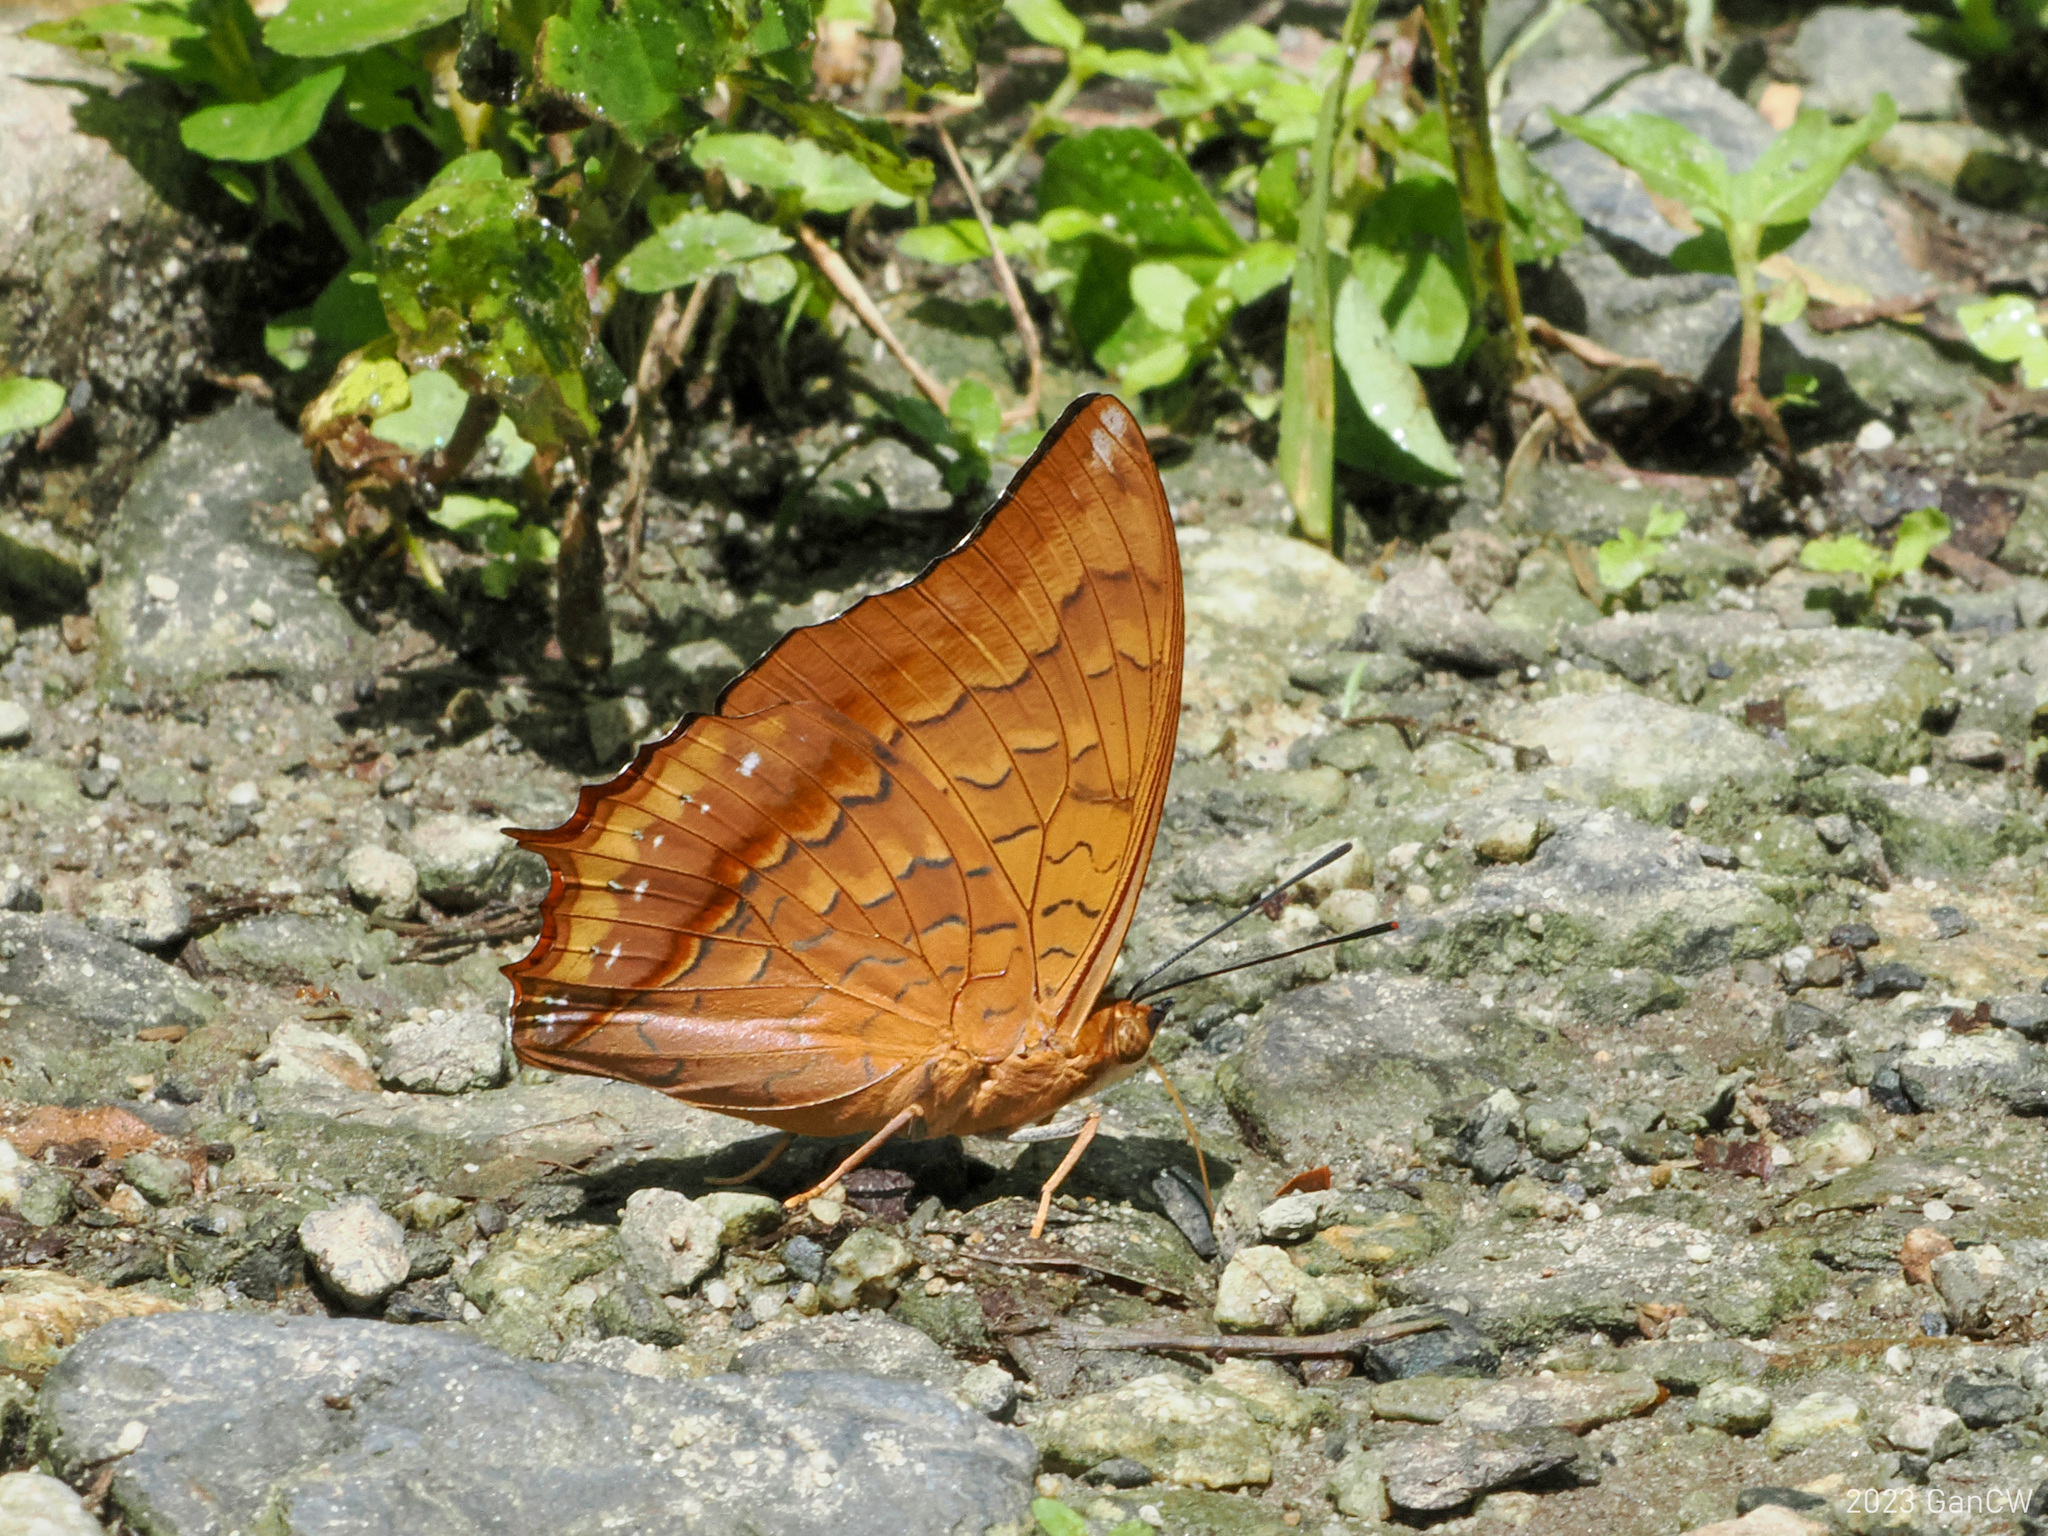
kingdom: Animalia
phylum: Arthropoda
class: Insecta
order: Lepidoptera
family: Nymphalidae
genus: Charaxes
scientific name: Charaxes affinis
